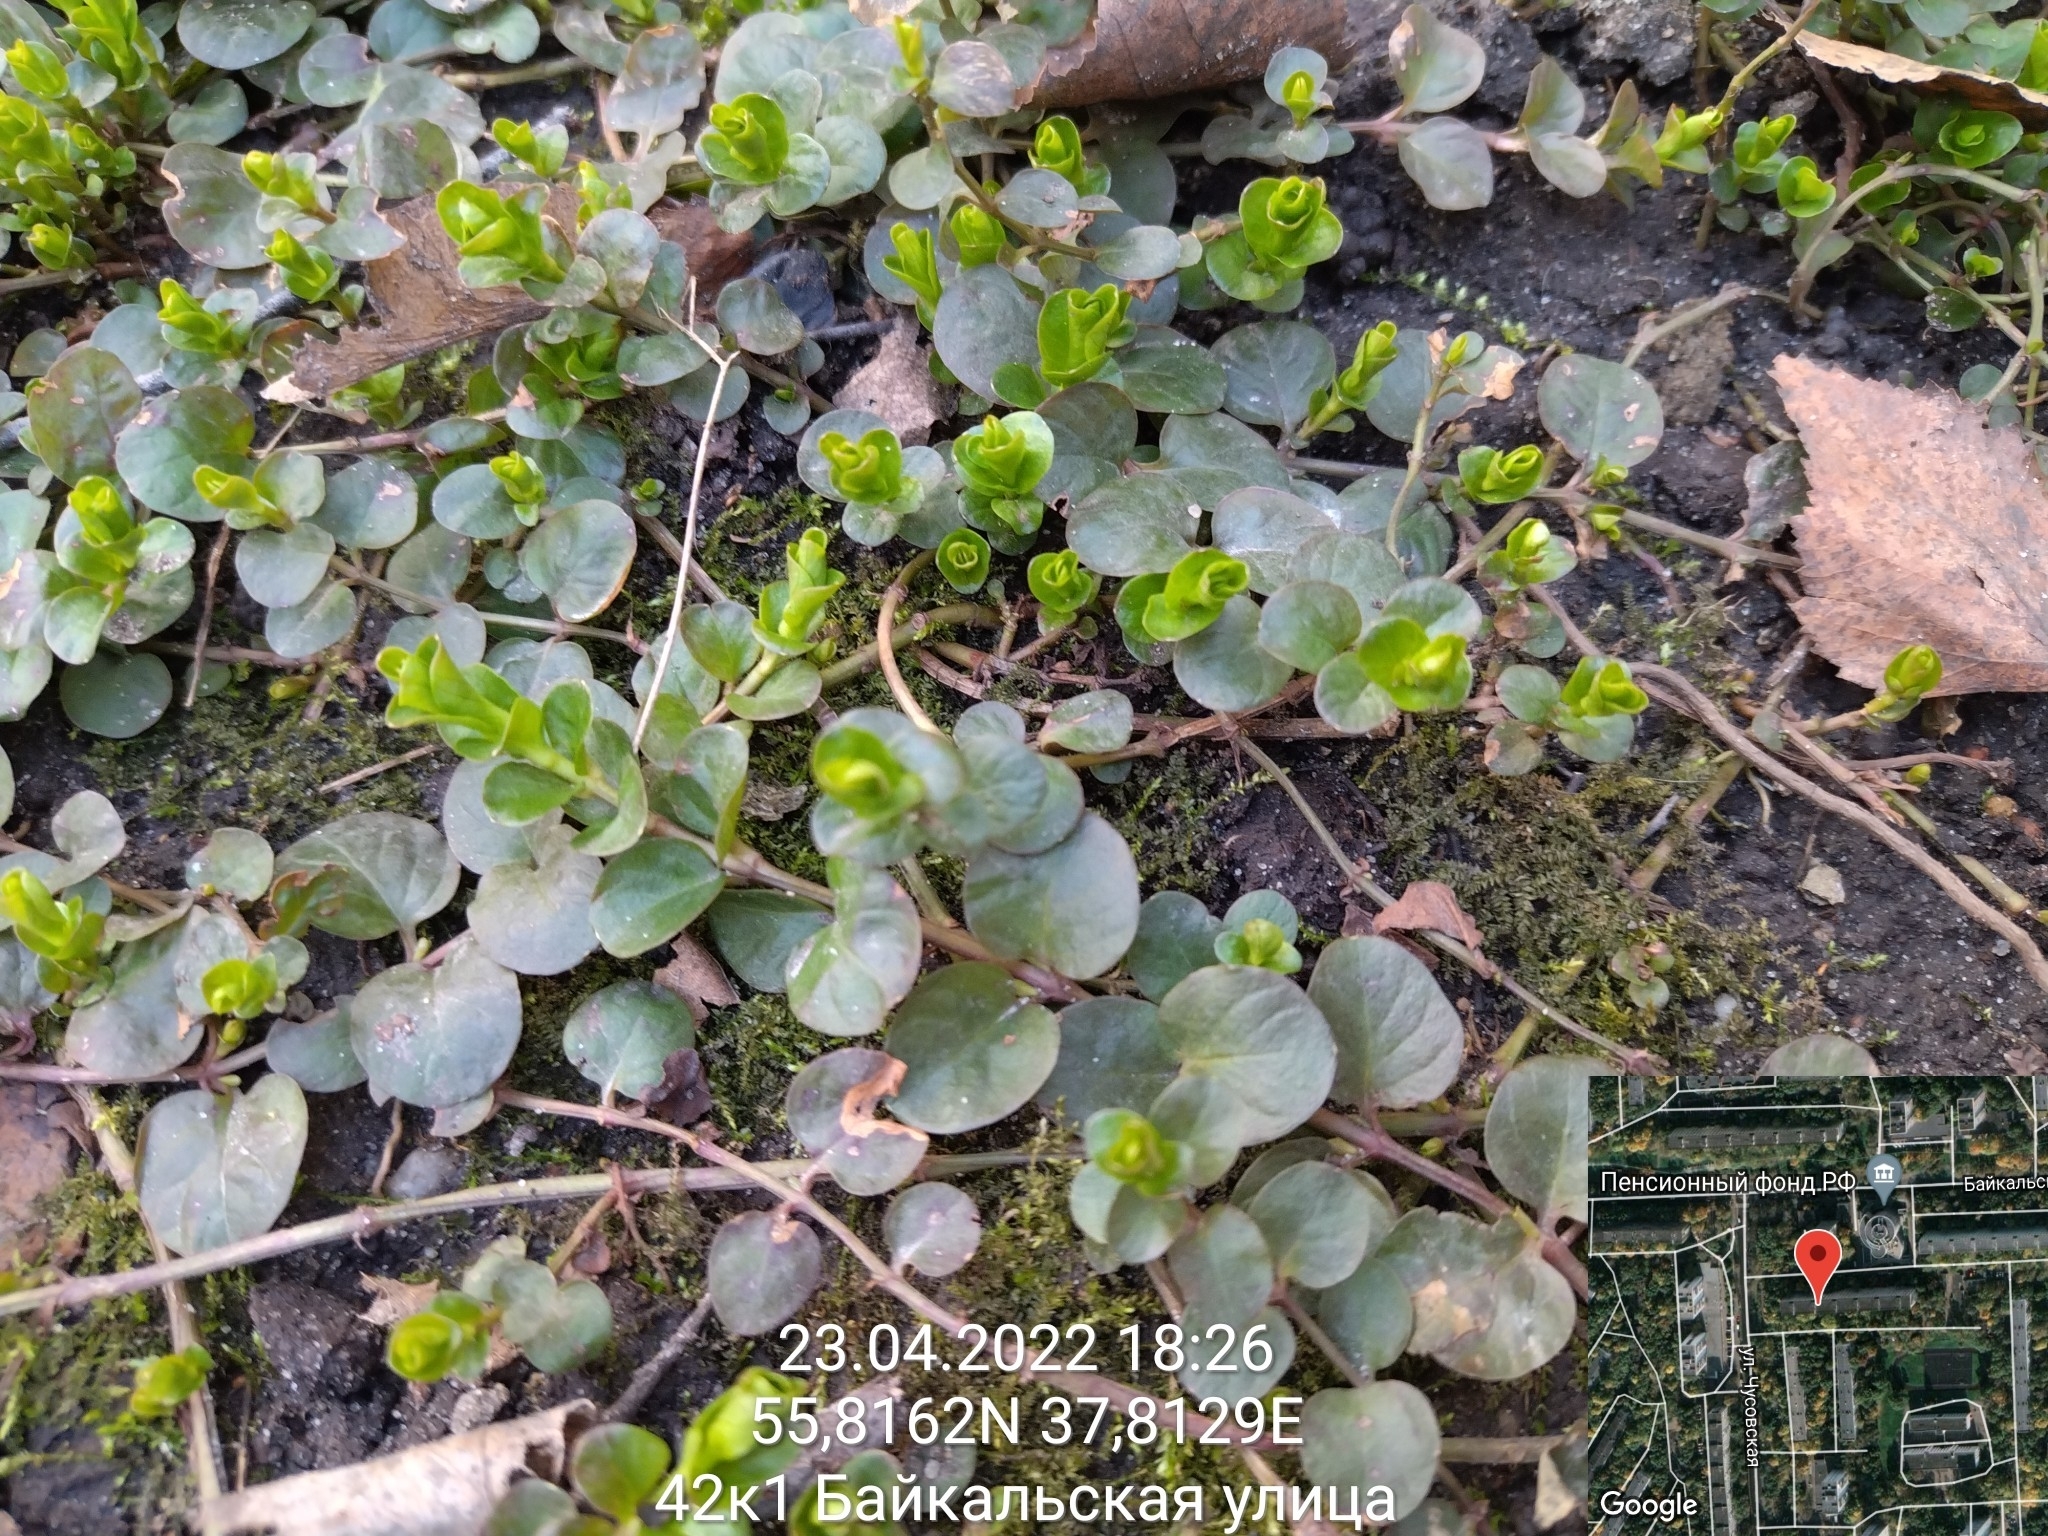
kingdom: Plantae
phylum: Tracheophyta
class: Magnoliopsida
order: Ericales
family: Primulaceae
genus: Lysimachia
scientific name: Lysimachia nummularia
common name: Moneywort
